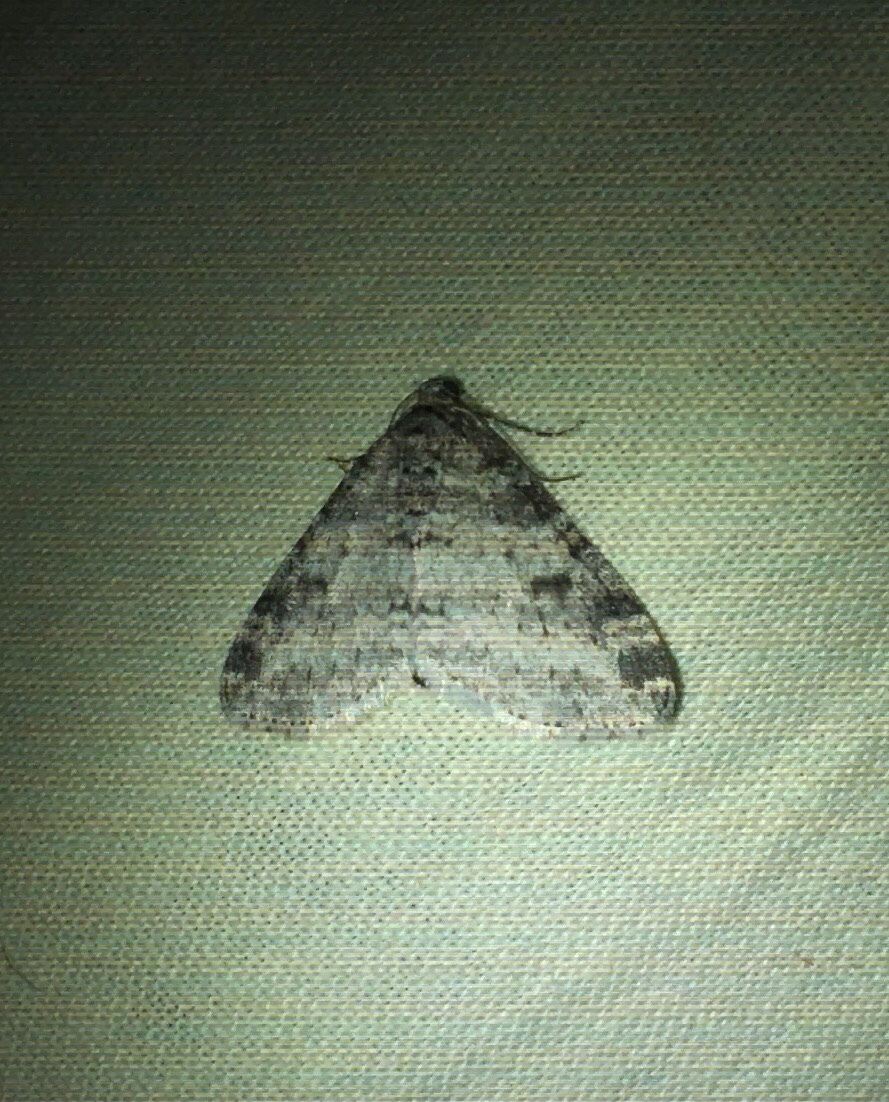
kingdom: Animalia
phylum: Arthropoda
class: Insecta
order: Lepidoptera
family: Geometridae
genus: Lobophora
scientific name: Lobophora nivigerata
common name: Powdered bigwing
